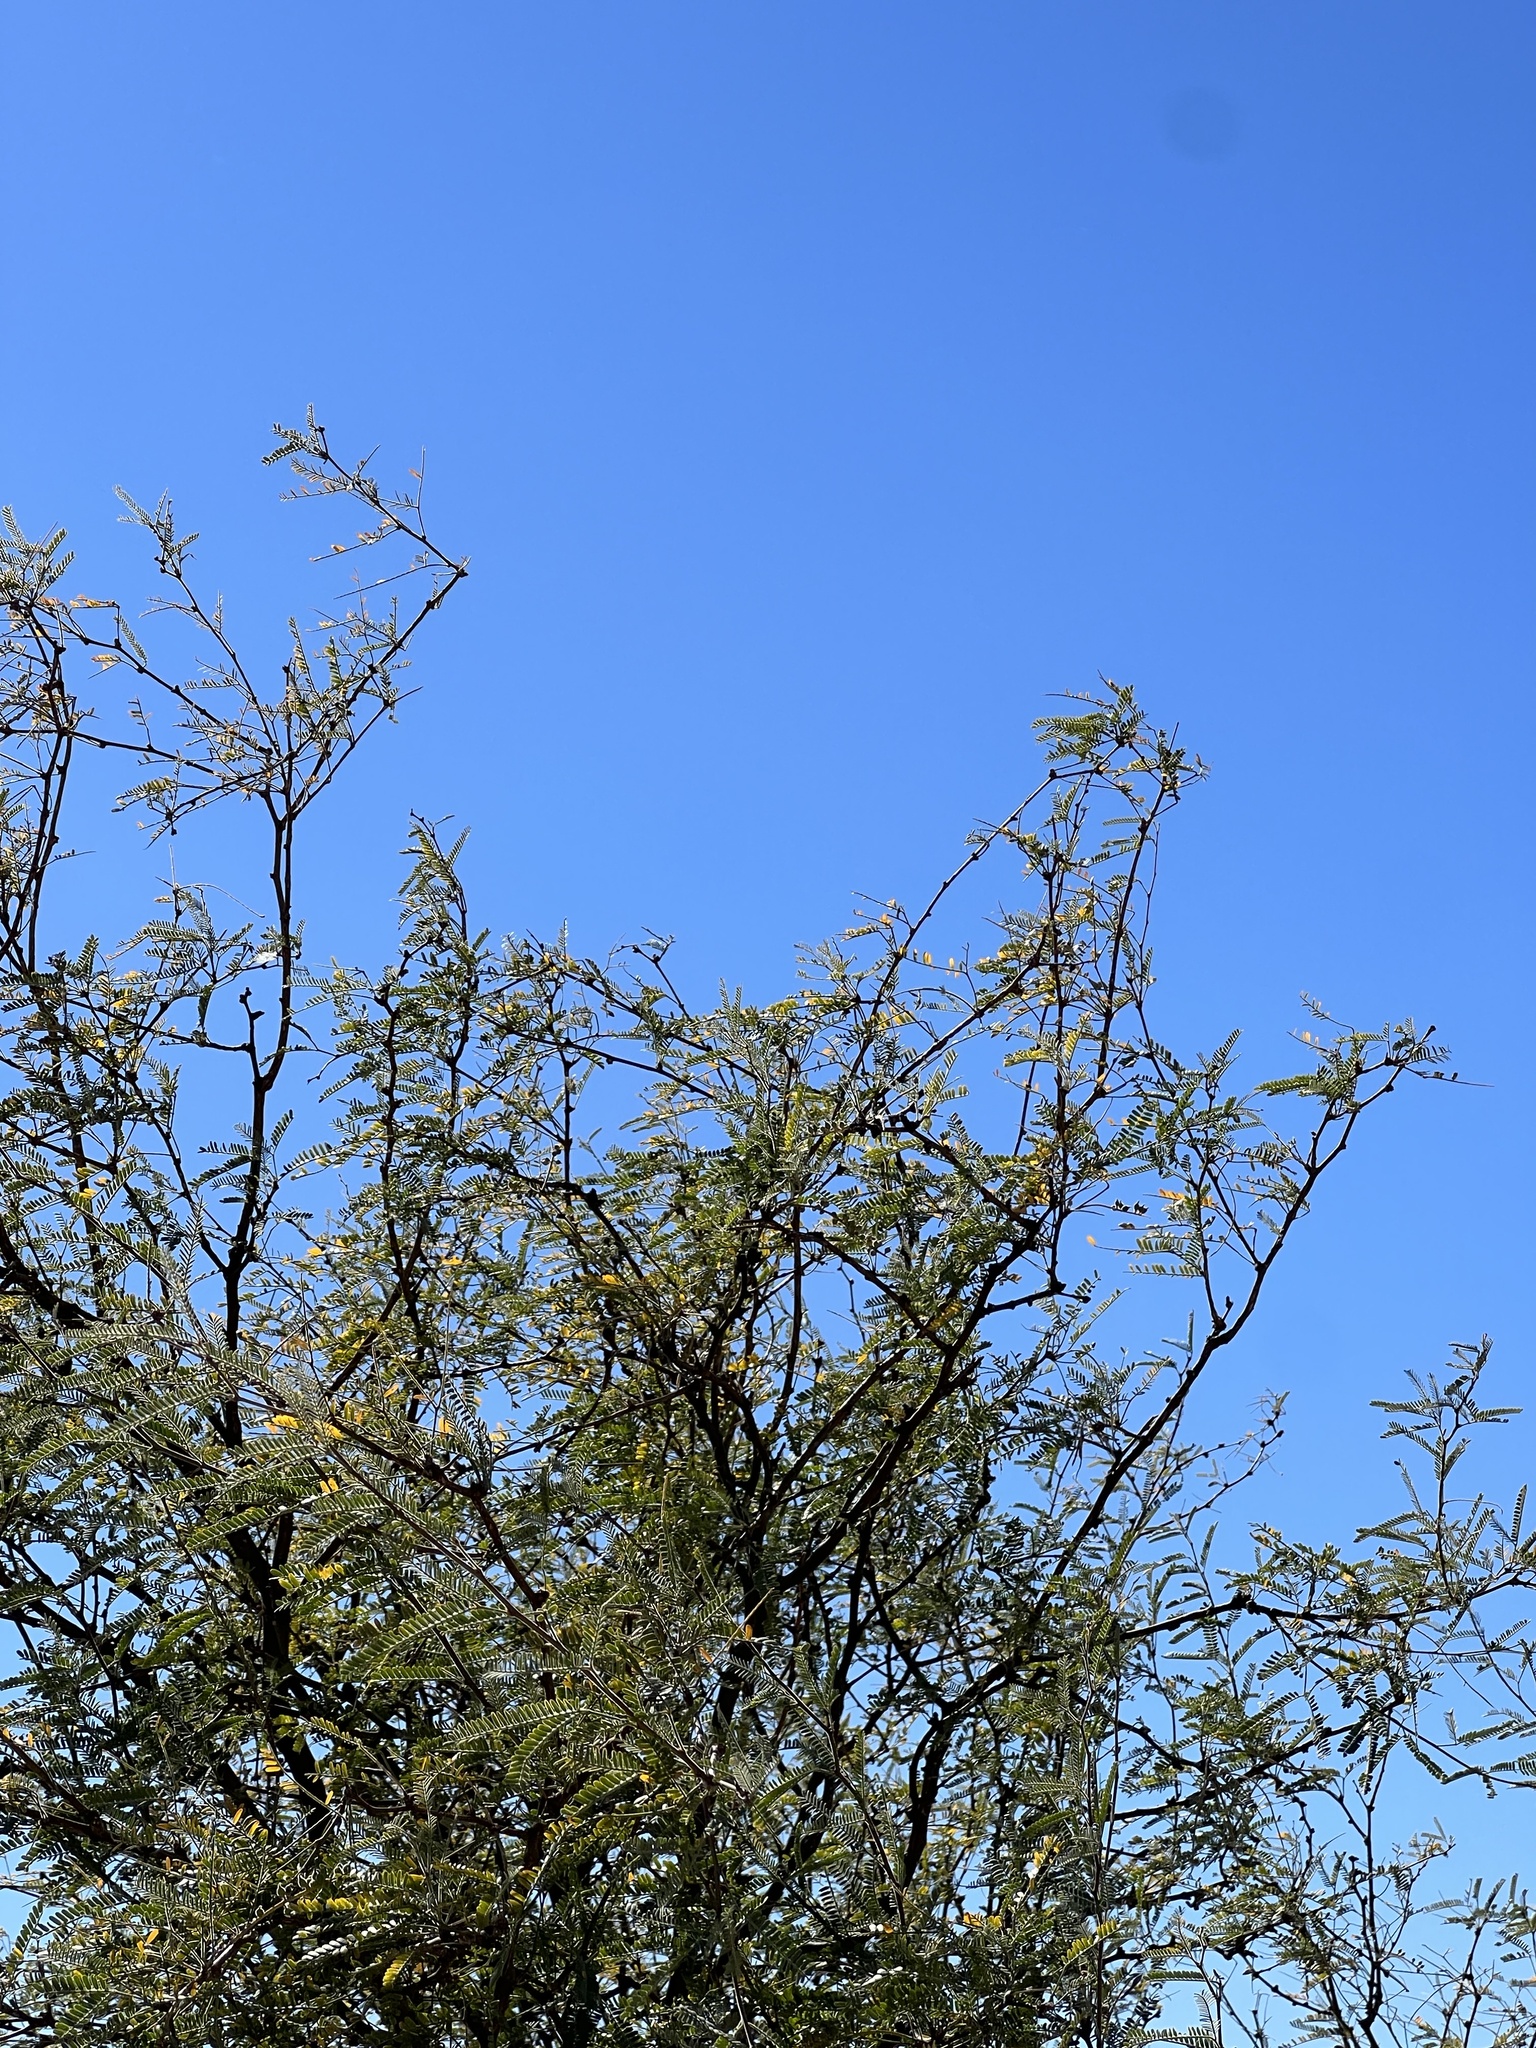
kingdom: Plantae
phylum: Tracheophyta
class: Magnoliopsida
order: Fabales
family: Fabaceae
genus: Prosopis
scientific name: Prosopis velutina
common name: Velvet mesquite
